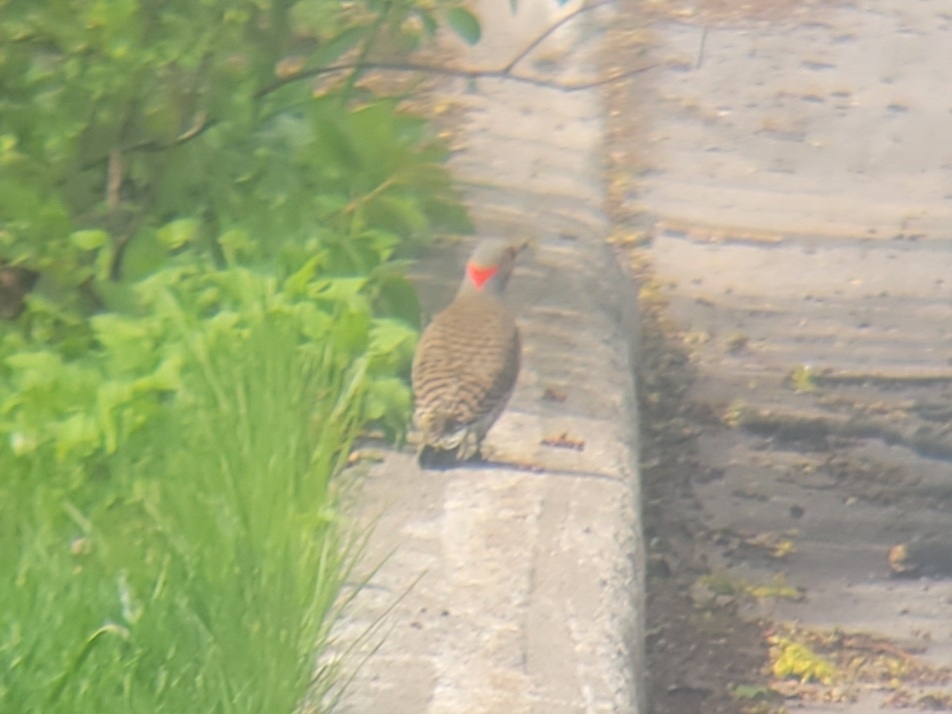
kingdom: Animalia
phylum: Chordata
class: Aves
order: Piciformes
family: Picidae
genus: Colaptes
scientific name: Colaptes auratus
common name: Northern flicker
